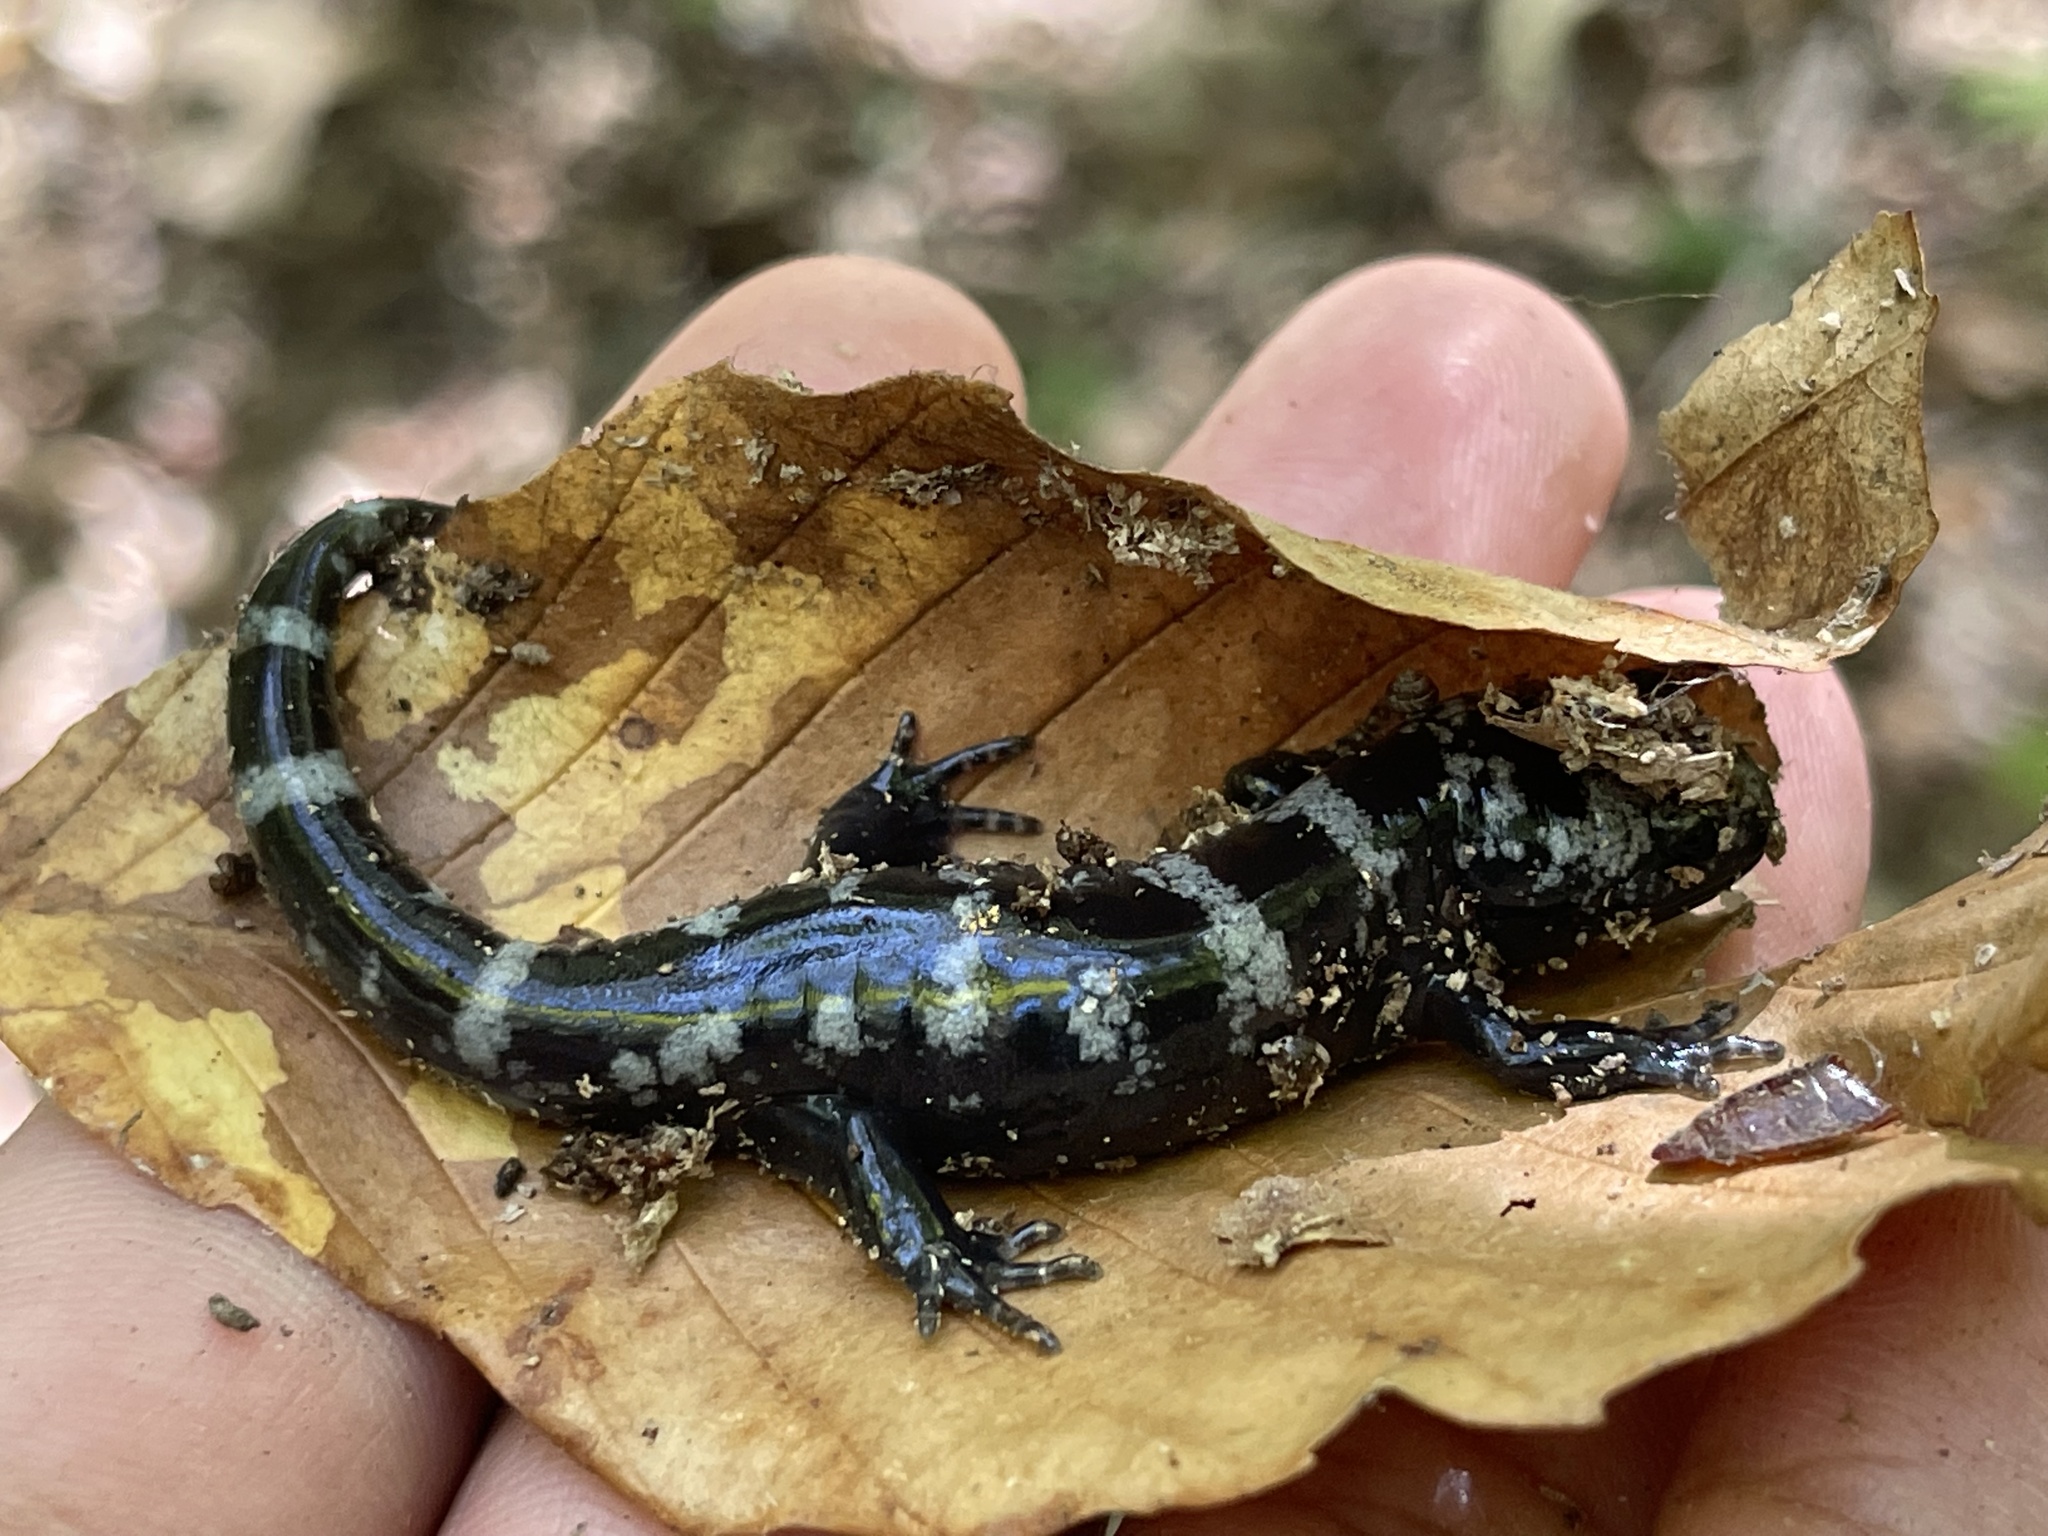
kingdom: Animalia
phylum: Chordata
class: Amphibia
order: Caudata
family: Ambystomatidae
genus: Ambystoma
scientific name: Ambystoma opacum
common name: Marbled salamander
